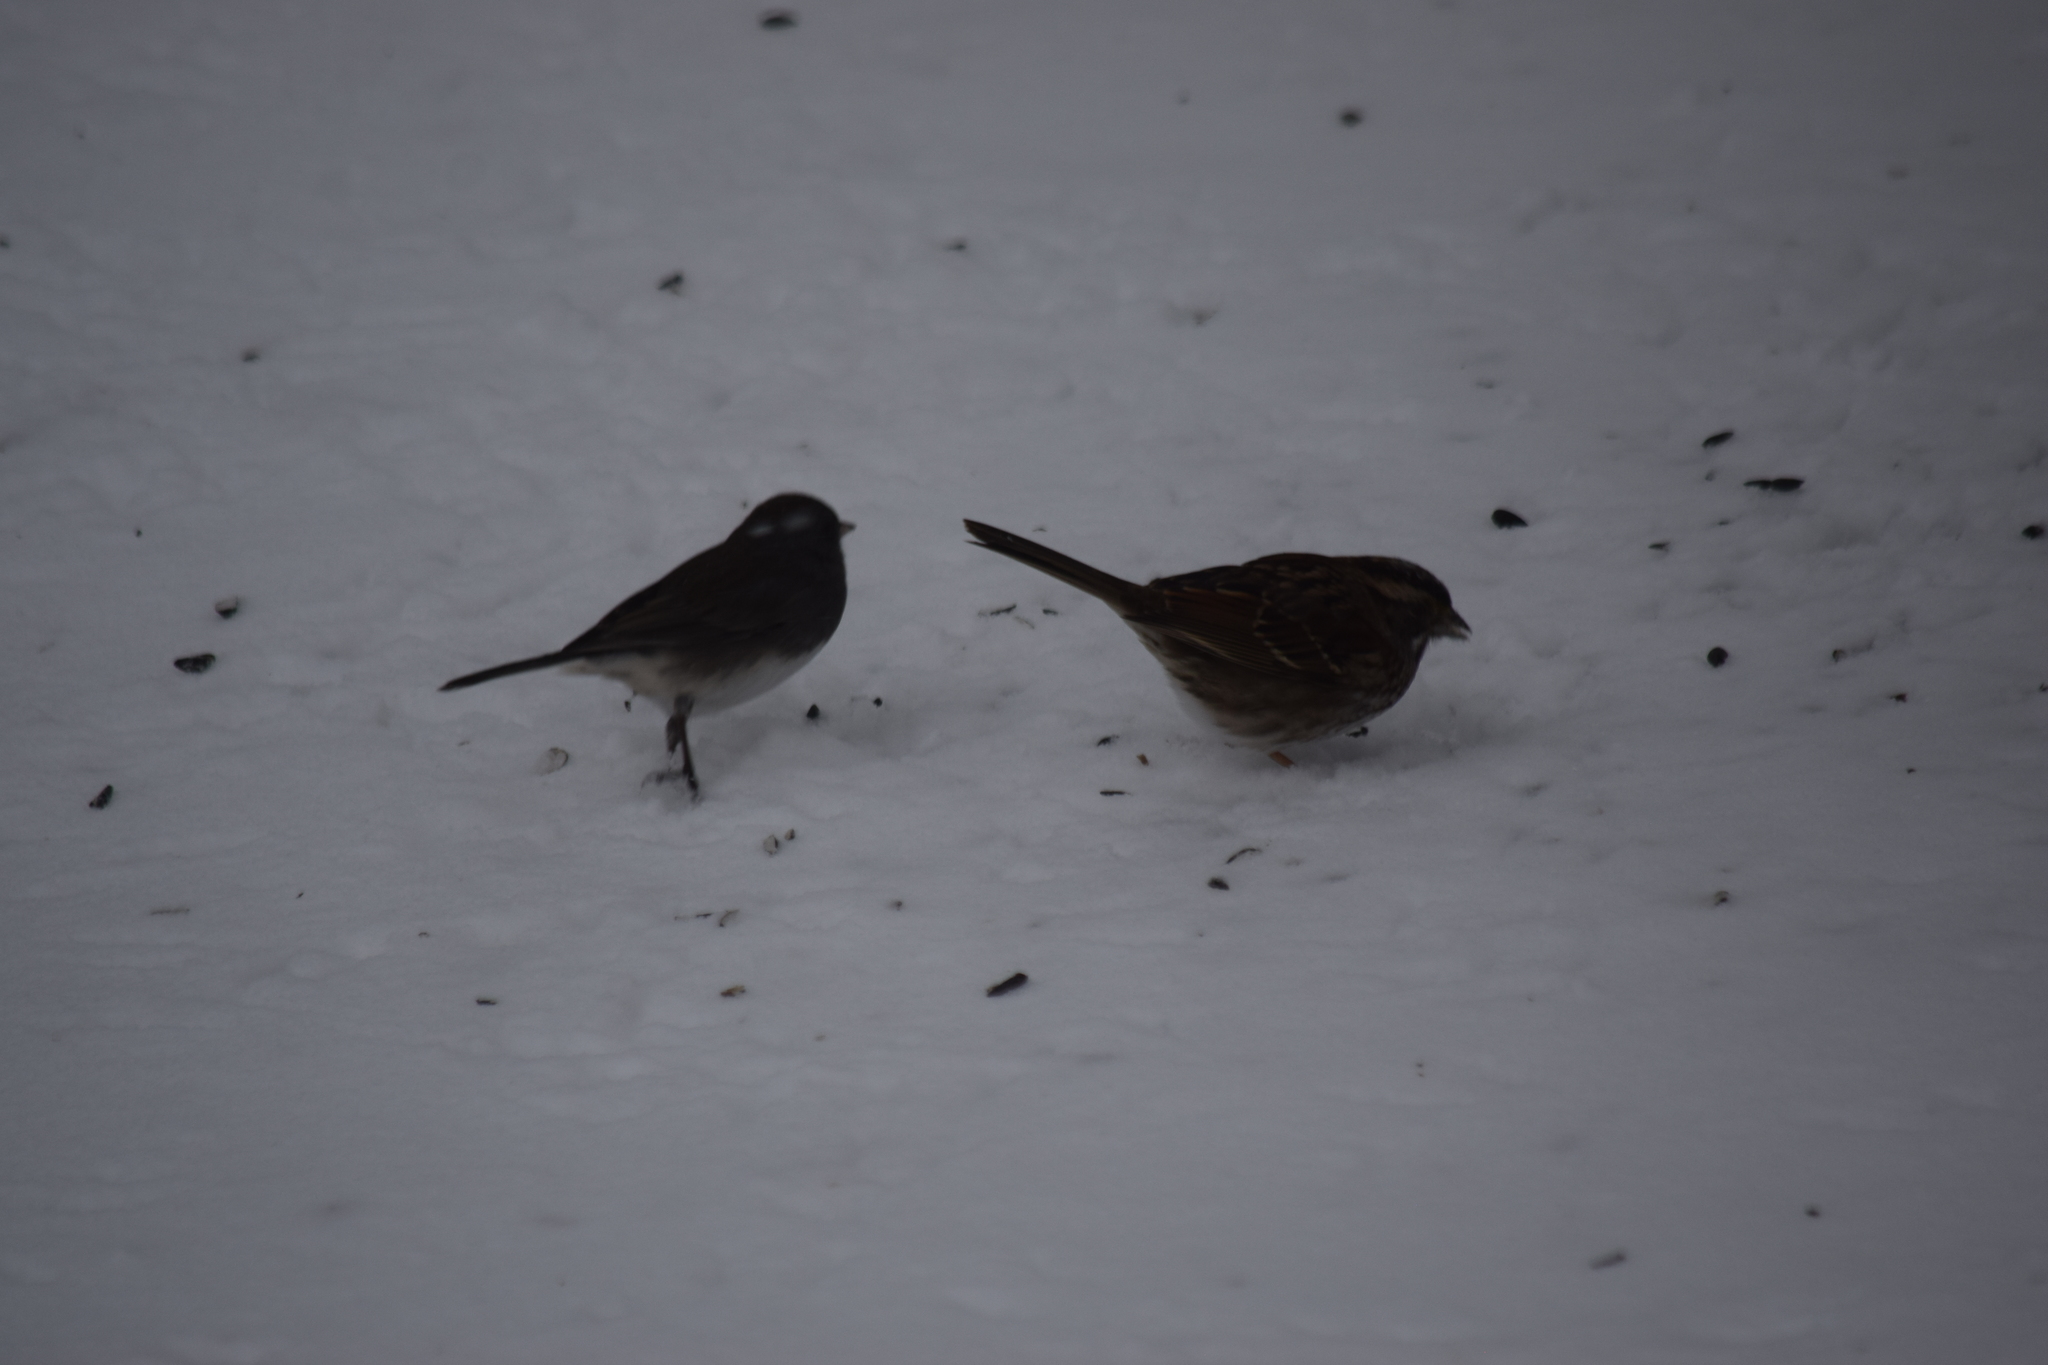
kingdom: Animalia
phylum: Chordata
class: Aves
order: Passeriformes
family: Passerellidae
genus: Zonotrichia
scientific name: Zonotrichia albicollis
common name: White-throated sparrow
